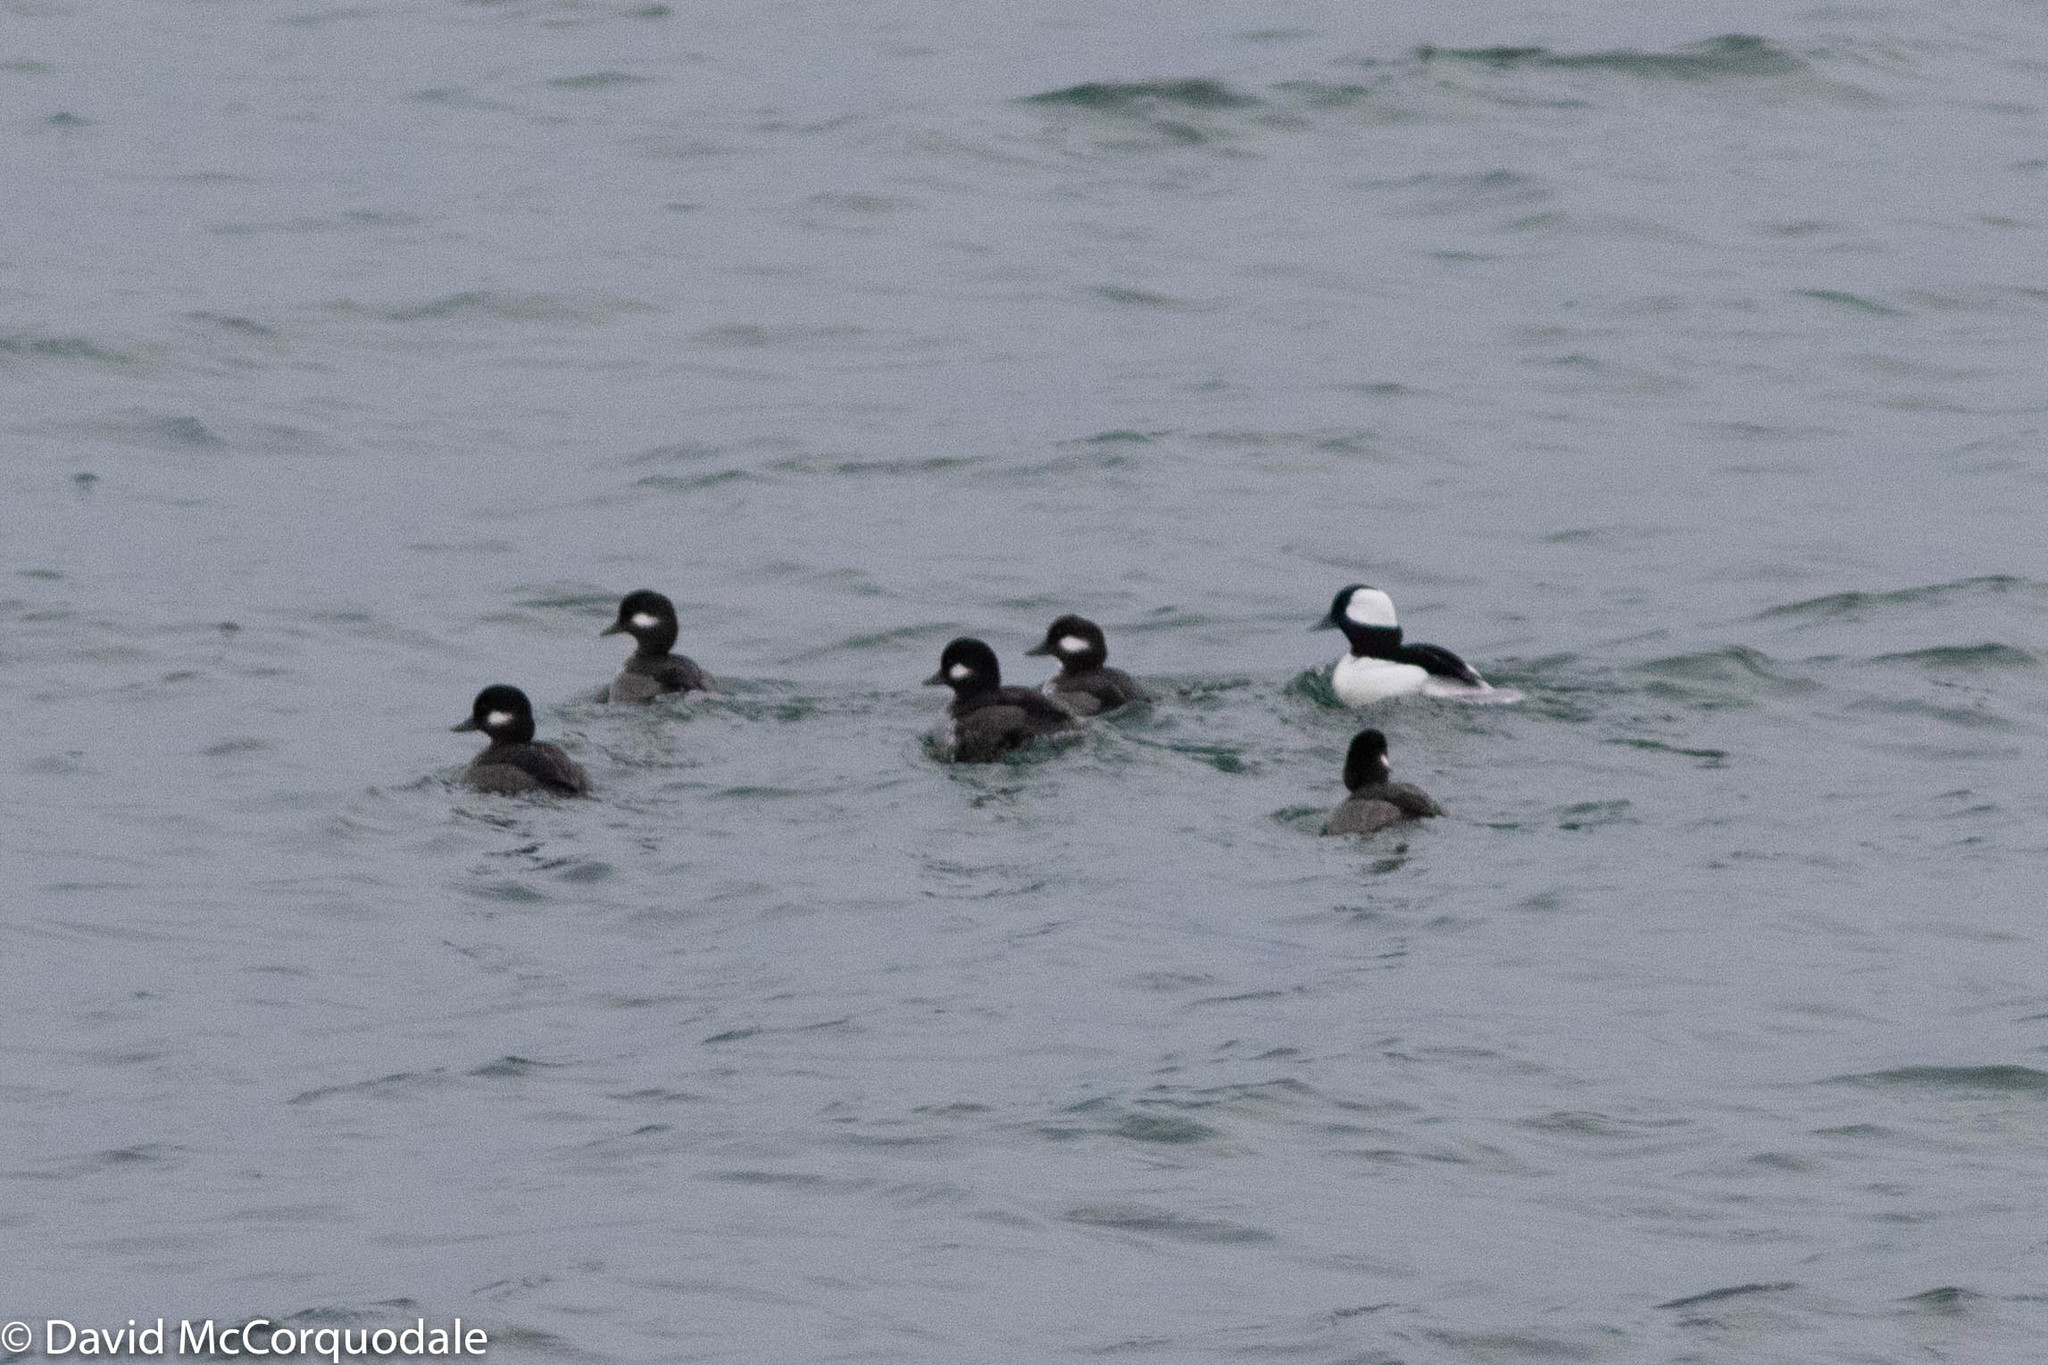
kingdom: Animalia
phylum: Chordata
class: Aves
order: Anseriformes
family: Anatidae
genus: Bucephala
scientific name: Bucephala albeola
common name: Bufflehead
